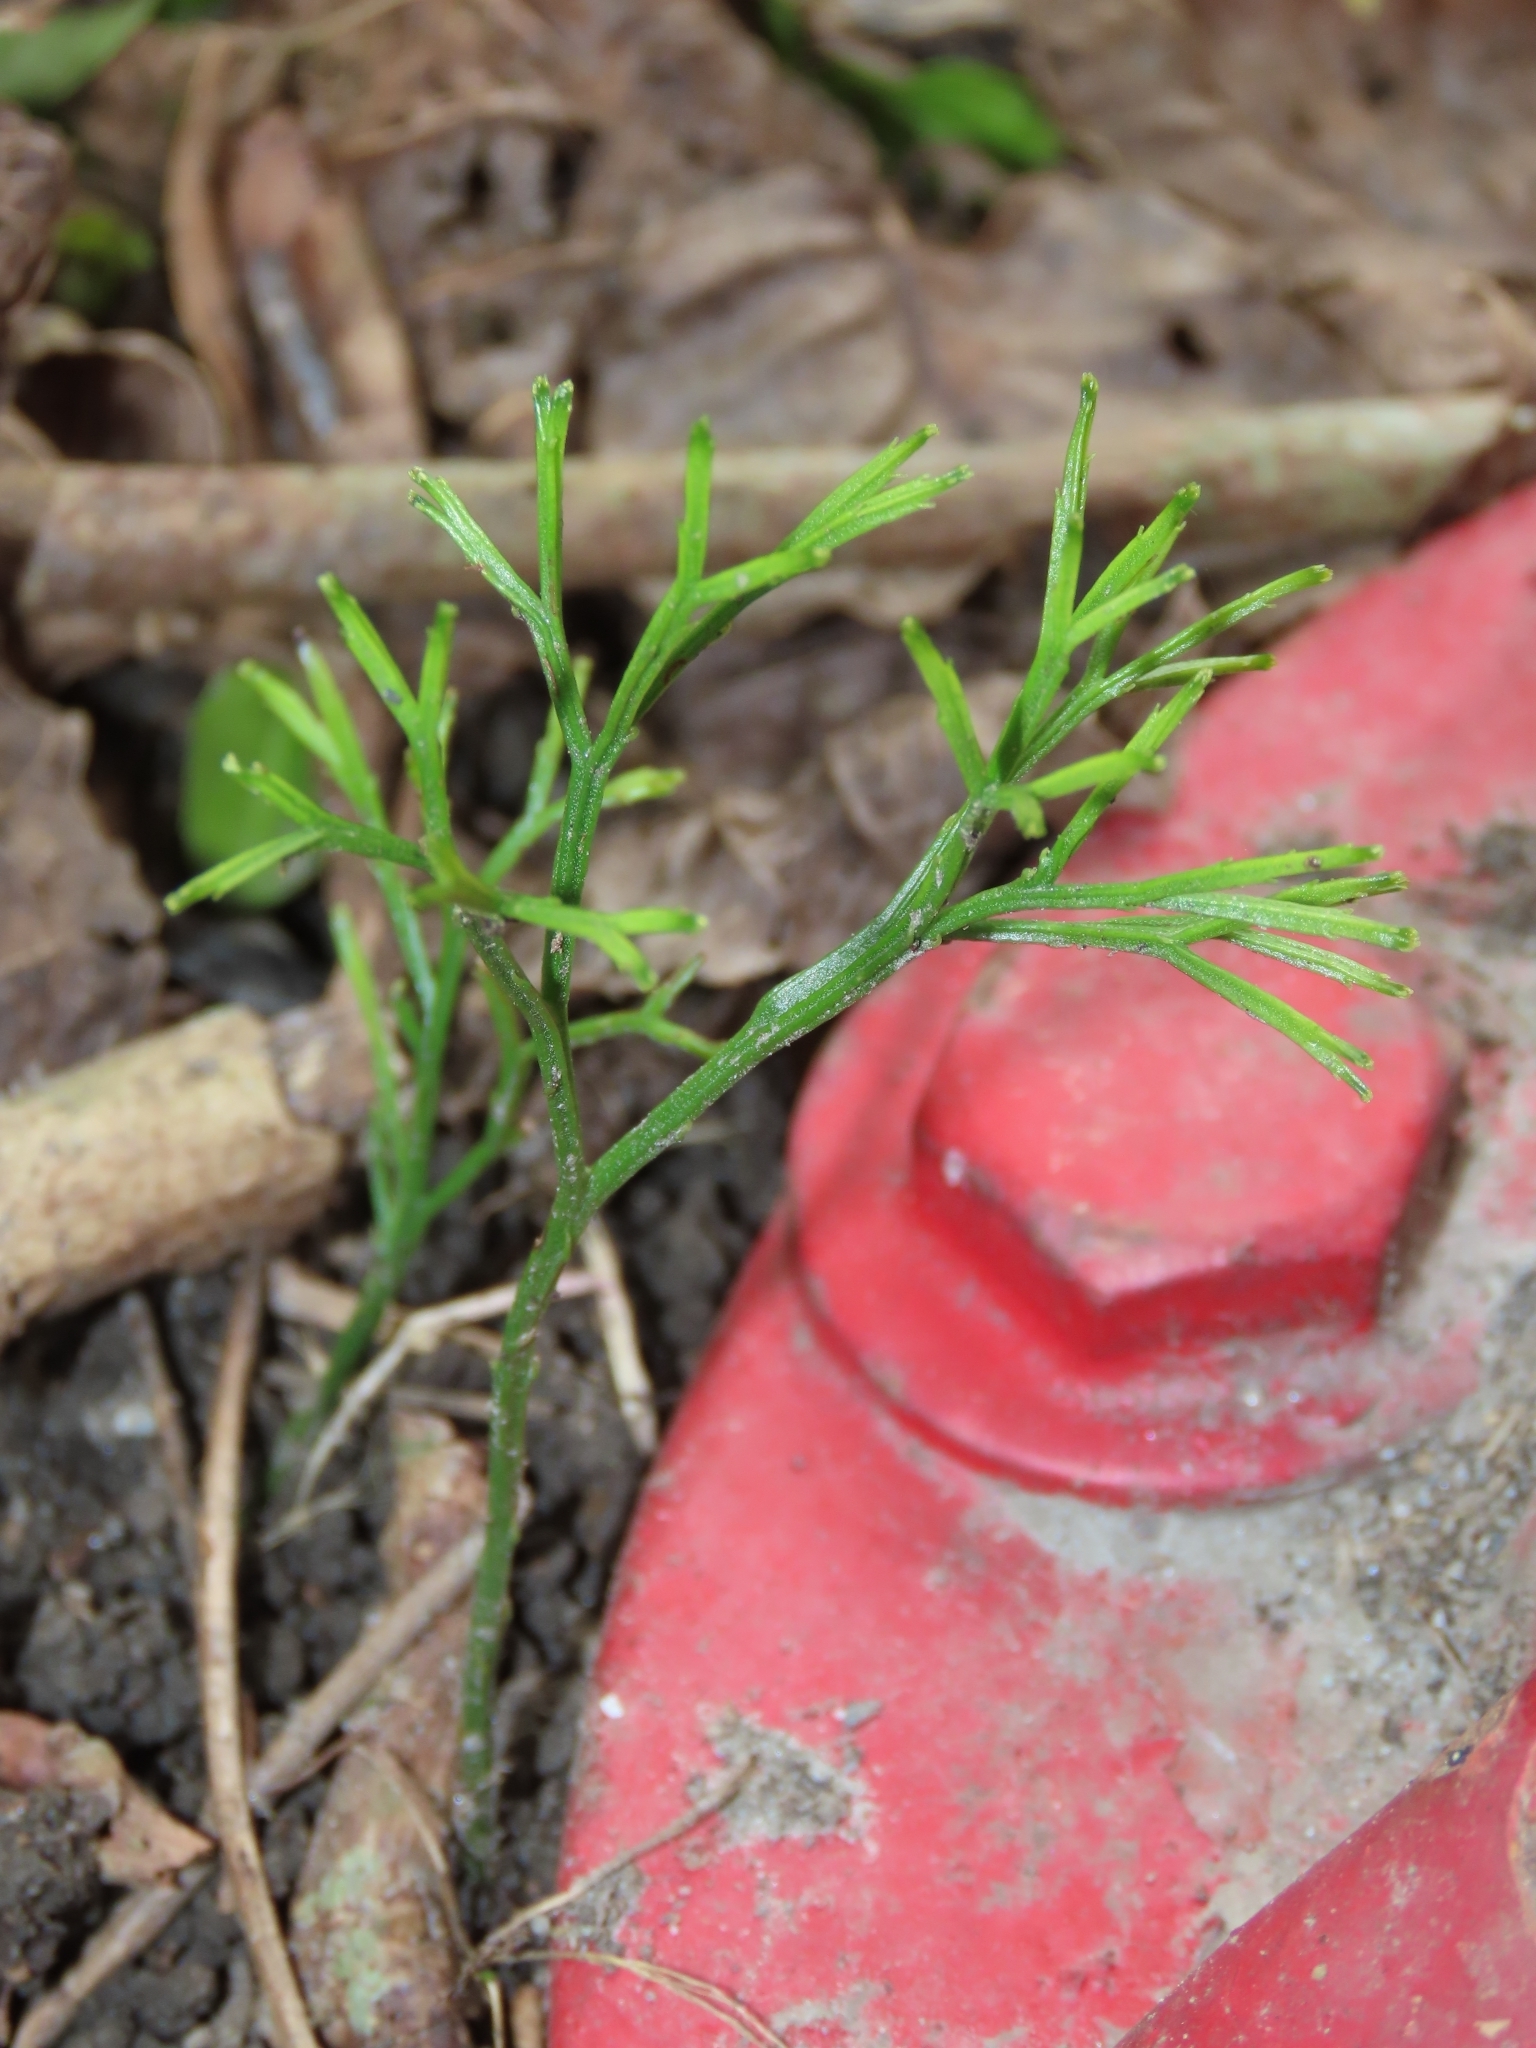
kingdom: Plantae
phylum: Tracheophyta
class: Polypodiopsida
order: Psilotales
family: Psilotaceae
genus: Psilotum
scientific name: Psilotum nudum
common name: Skeleton fork fern
